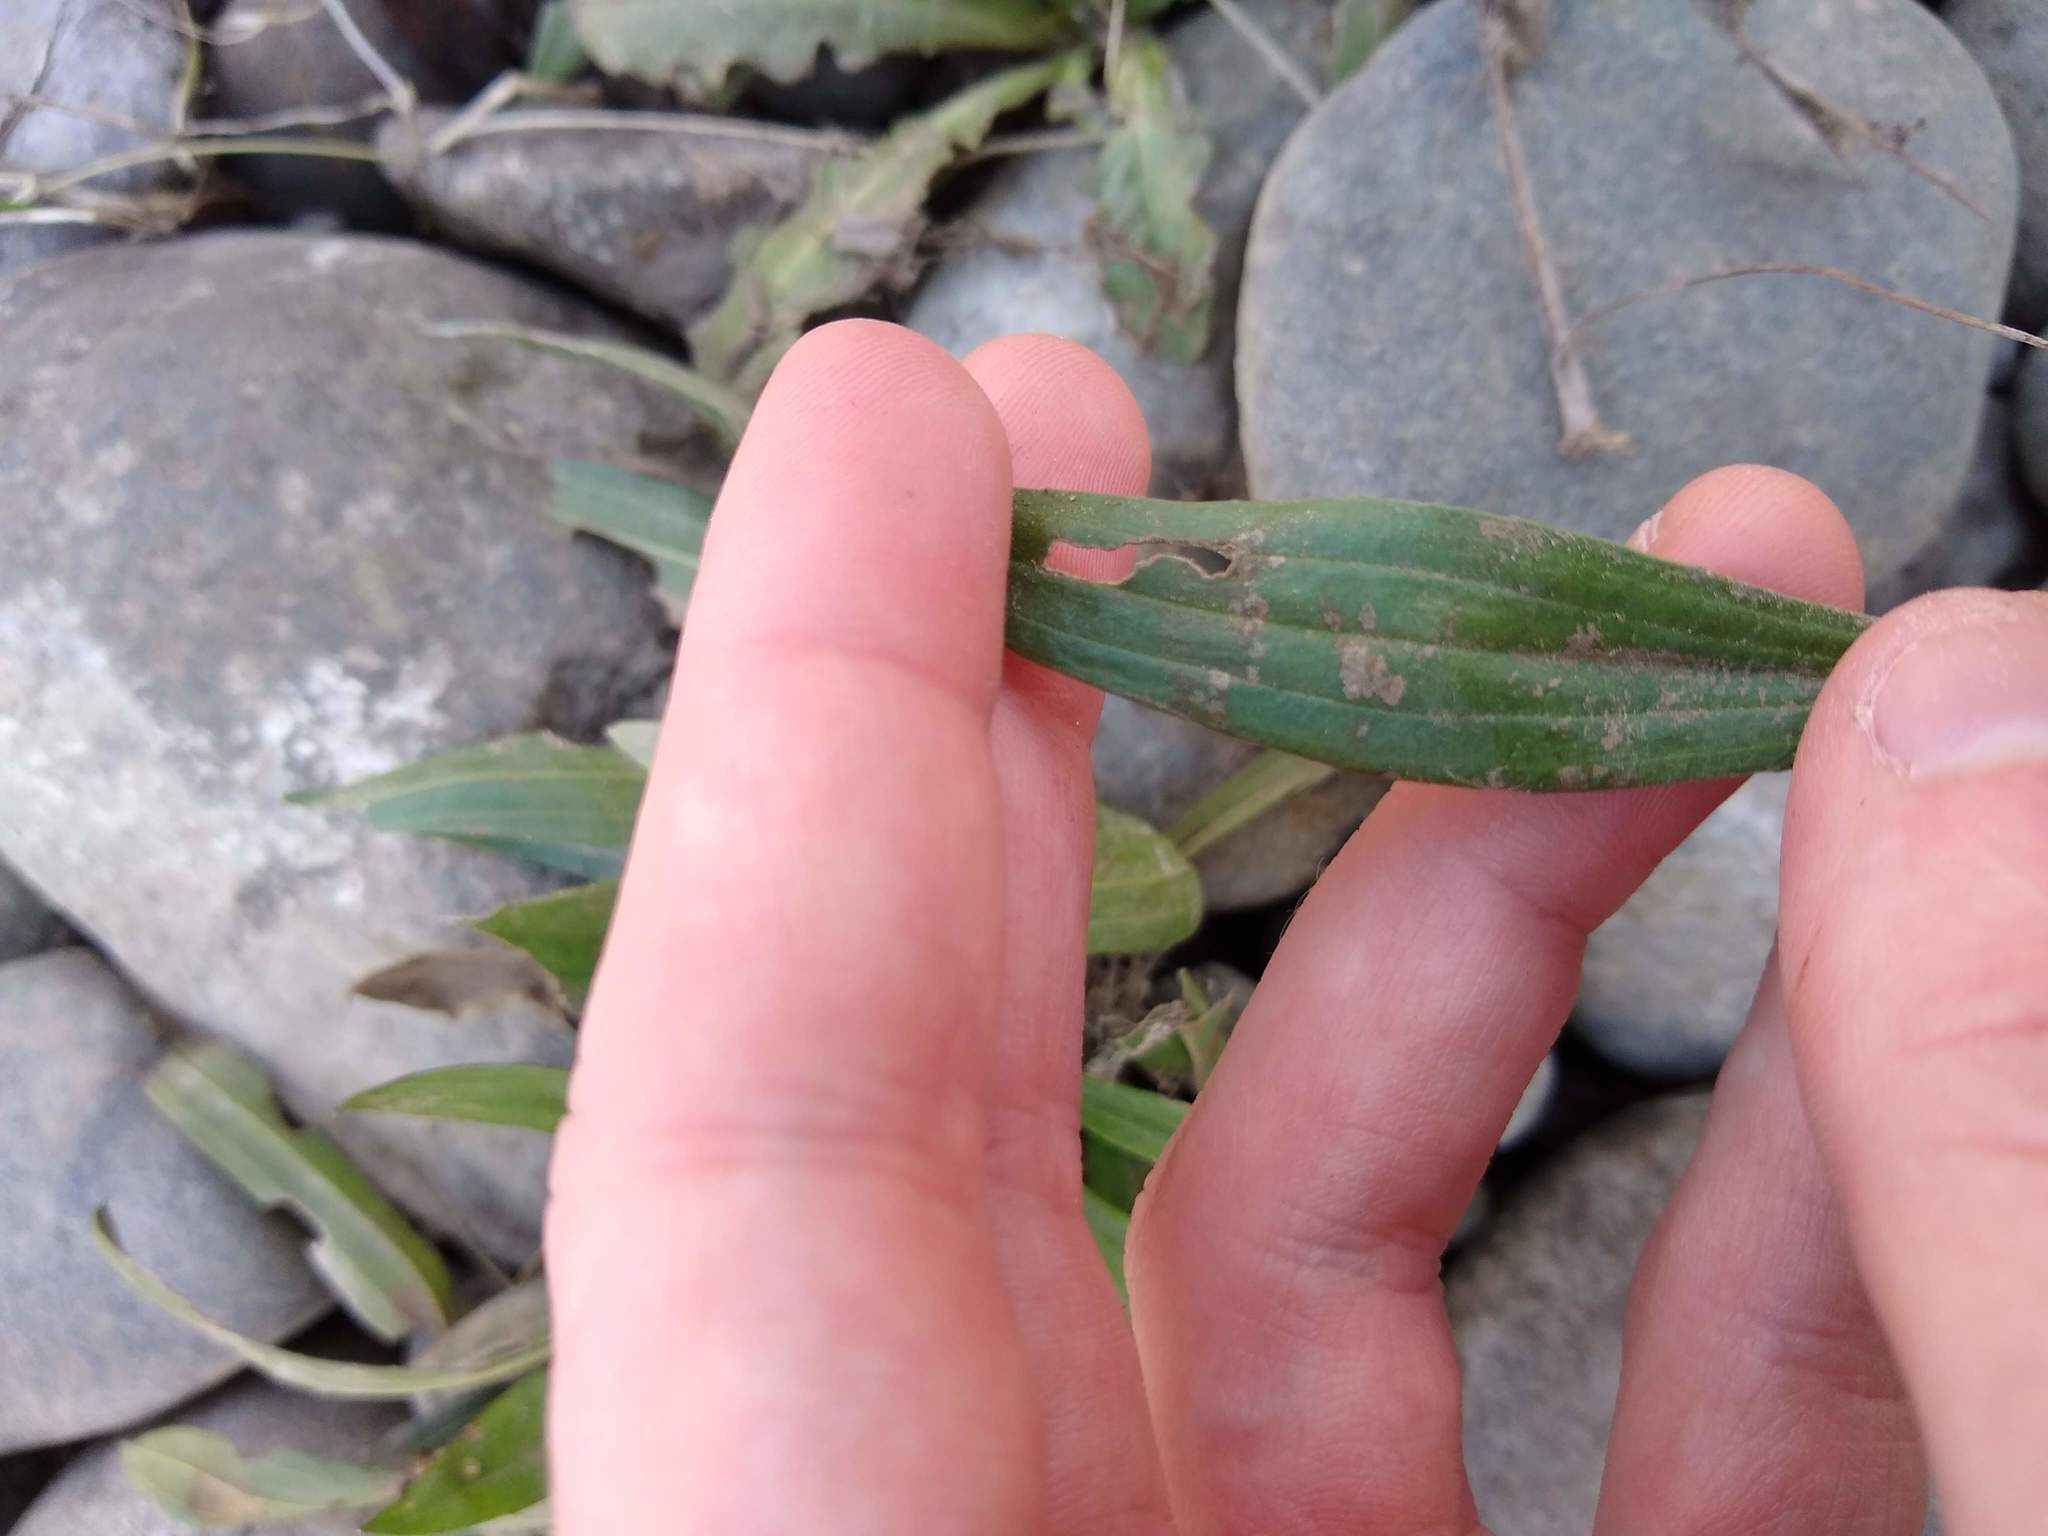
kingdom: Plantae
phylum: Tracheophyta
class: Magnoliopsida
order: Lamiales
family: Plantaginaceae
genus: Plantago
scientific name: Plantago lanceolata
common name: Ribwort plantain
